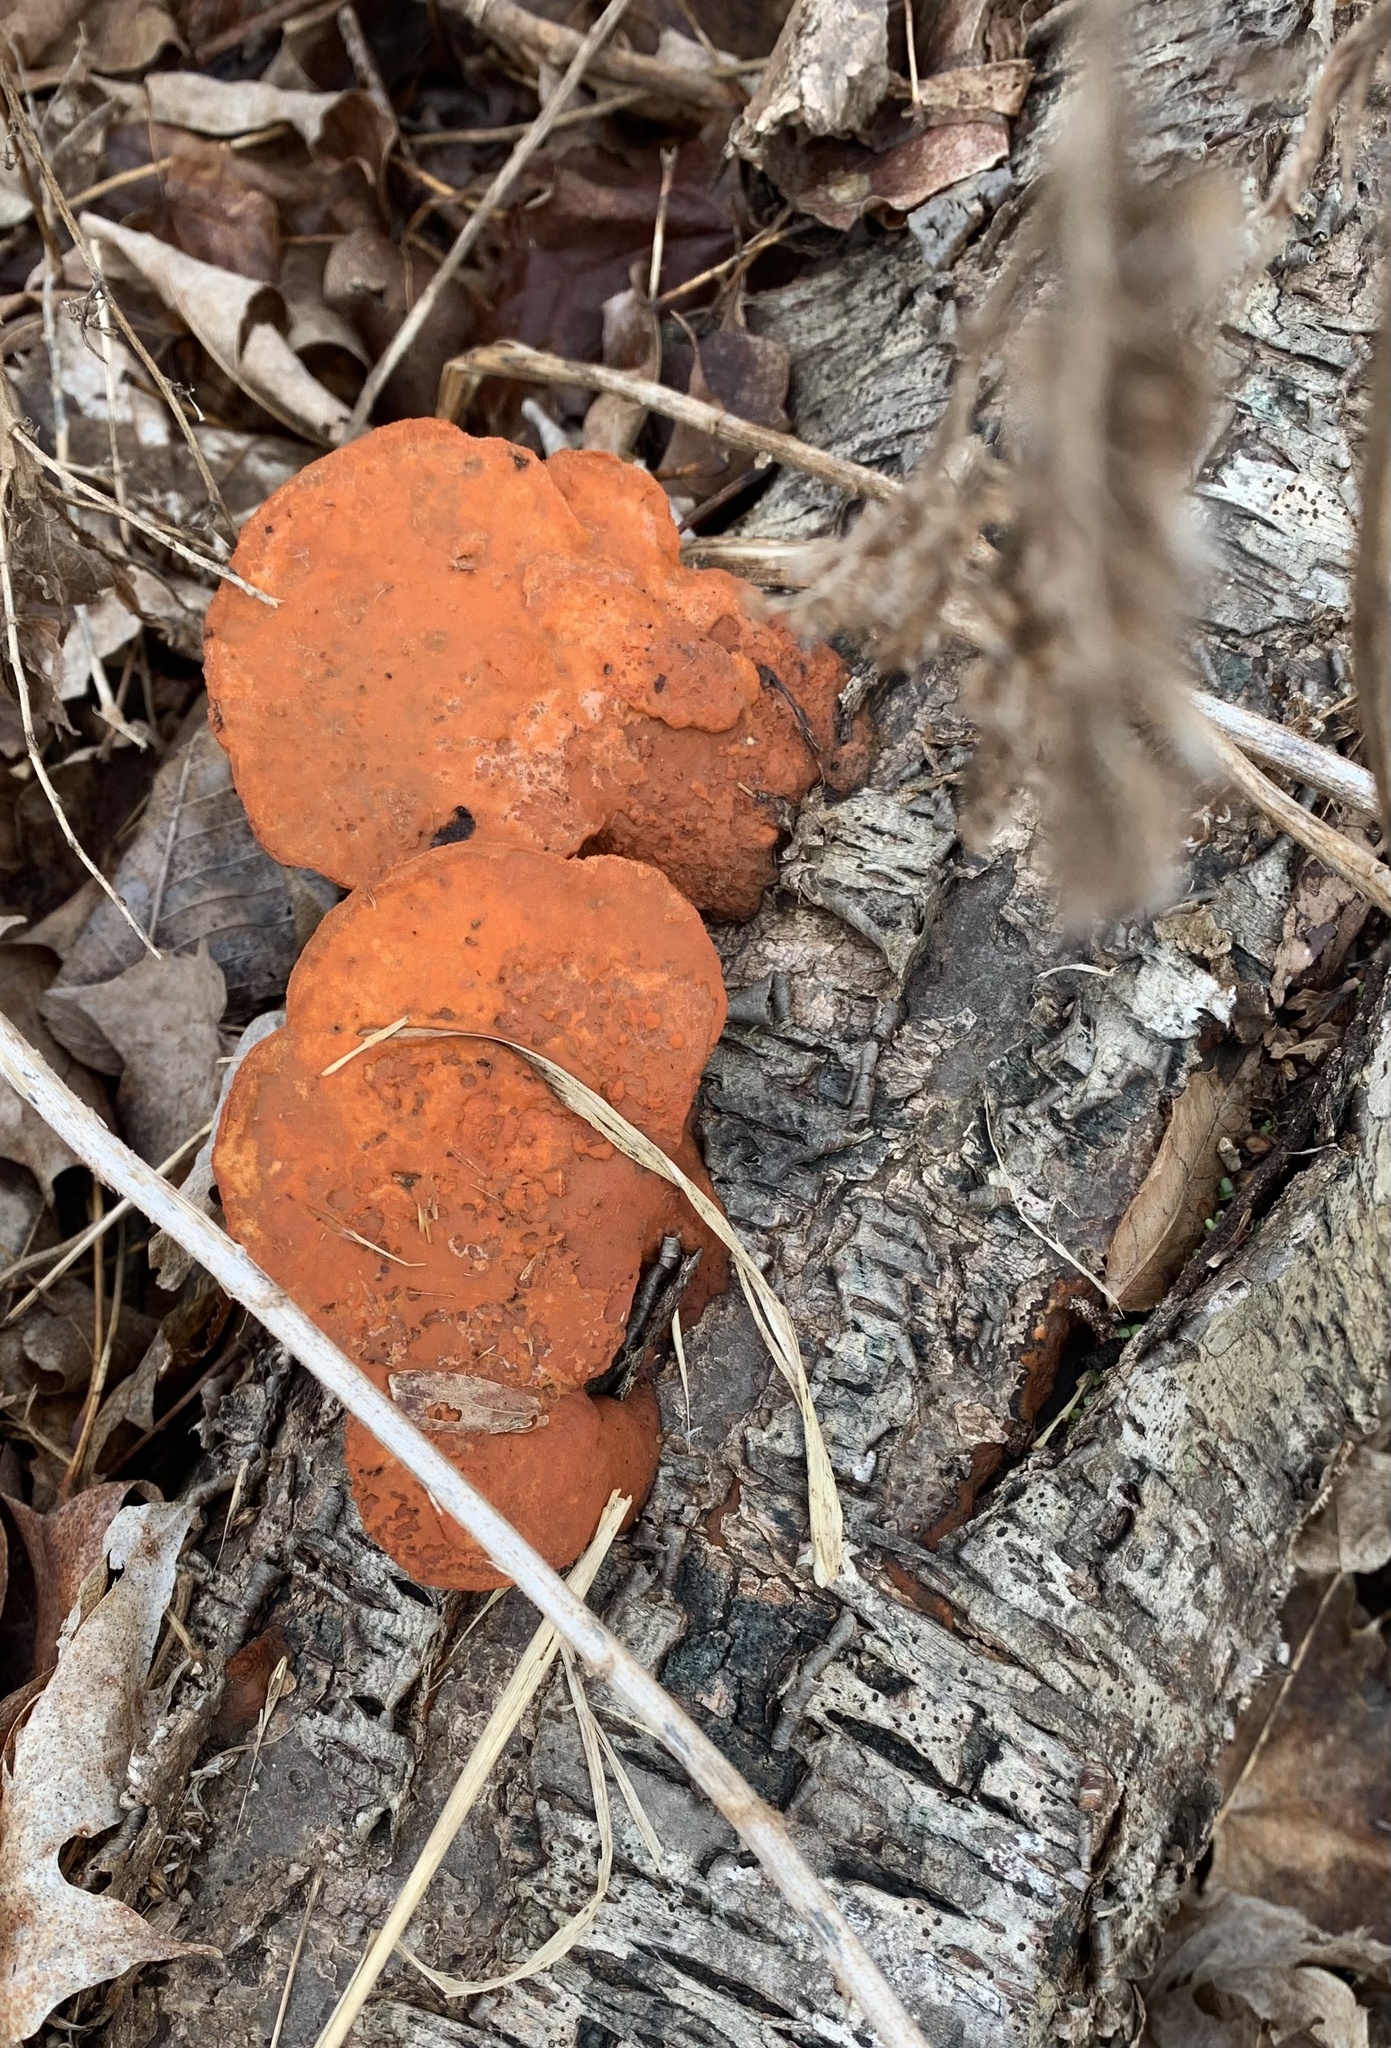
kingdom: Fungi
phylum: Basidiomycota
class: Agaricomycetes
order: Polyporales
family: Polyporaceae
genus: Trametes
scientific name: Trametes cinnabarina
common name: Northern cinnabar polypore
